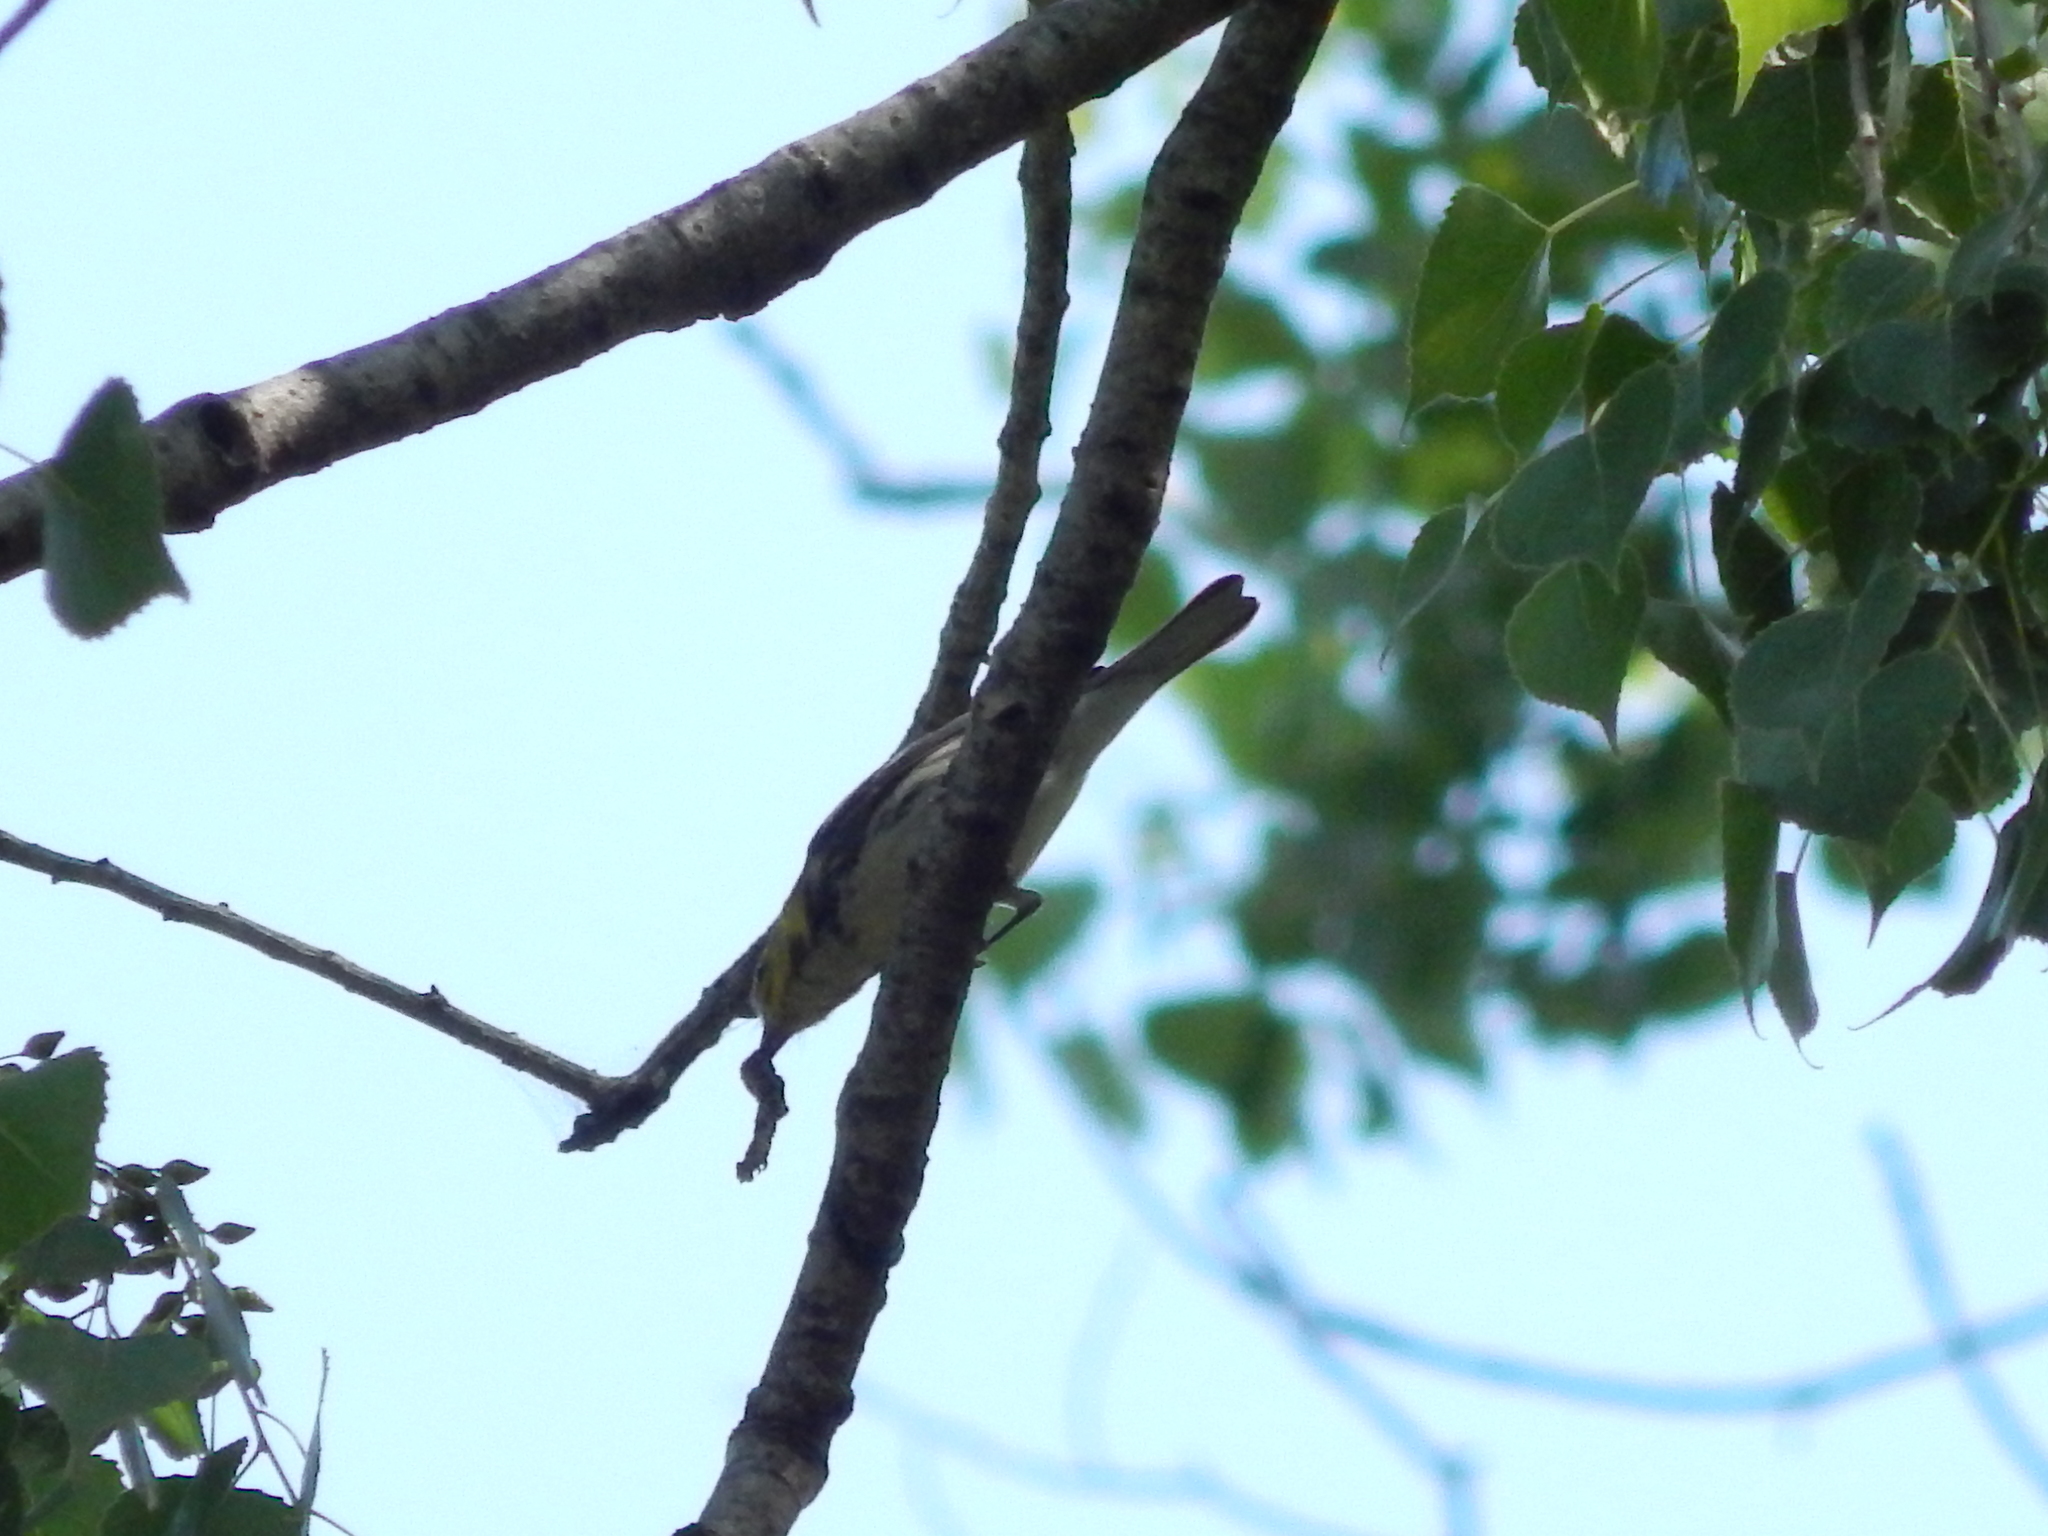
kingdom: Animalia
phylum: Chordata
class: Aves
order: Passeriformes
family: Parulidae
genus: Setophaga
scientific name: Setophaga virens
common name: Black-throated green warbler
